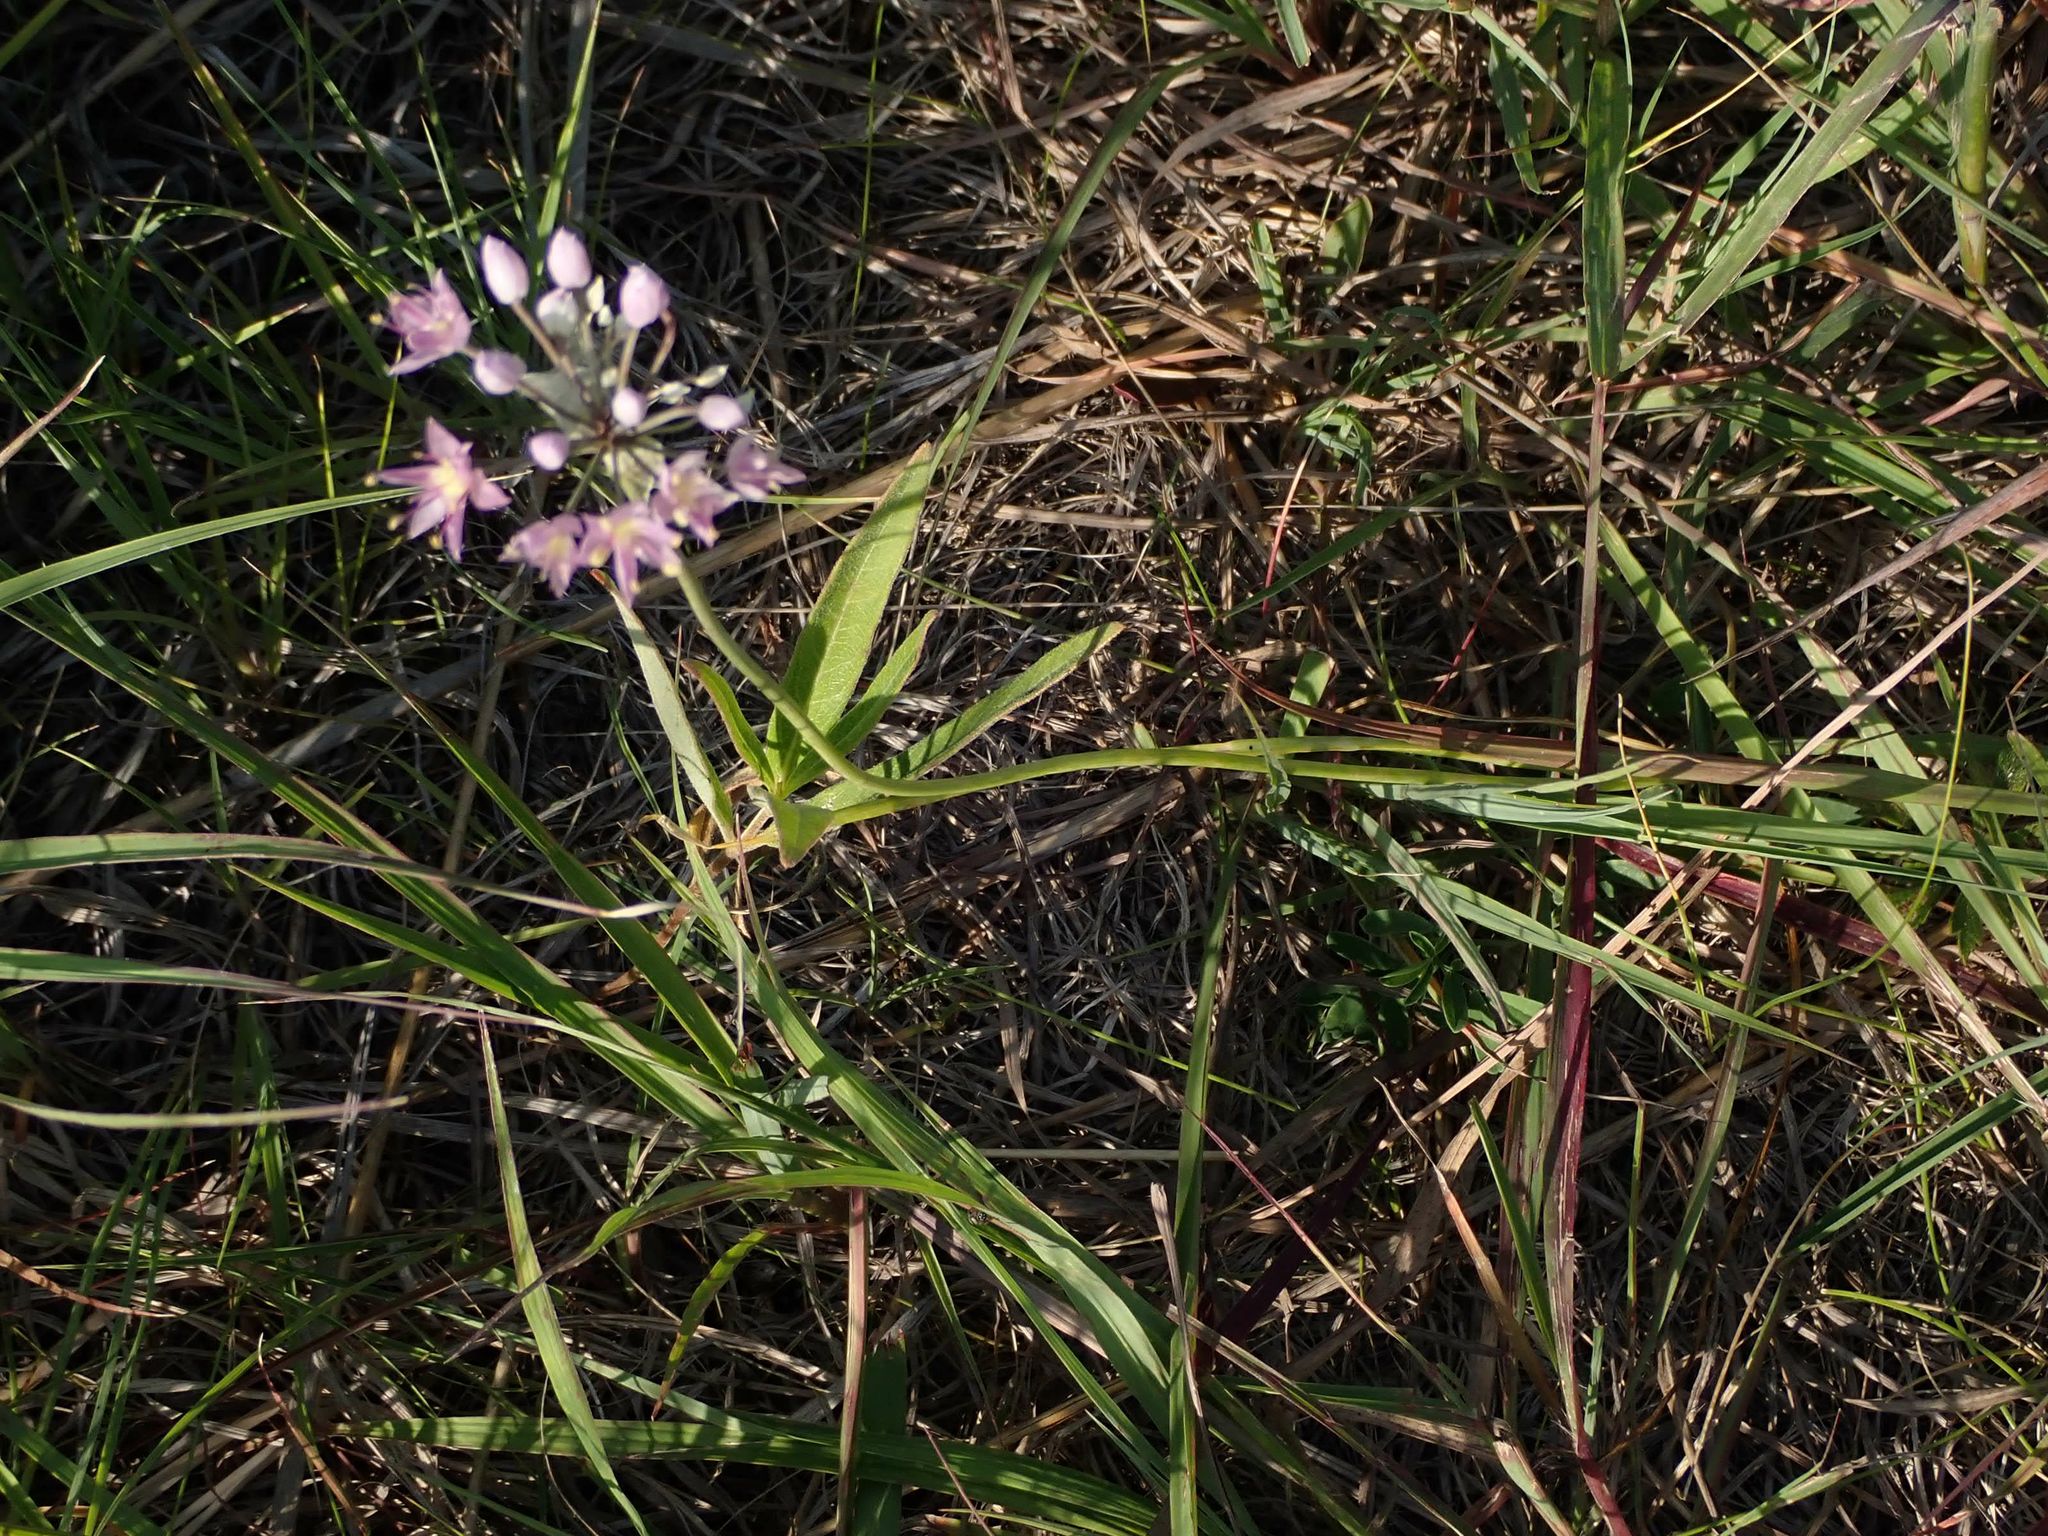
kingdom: Plantae
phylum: Tracheophyta
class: Liliopsida
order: Asparagales
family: Amaryllidaceae
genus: Allium
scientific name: Allium stellatum
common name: Autumn onion
